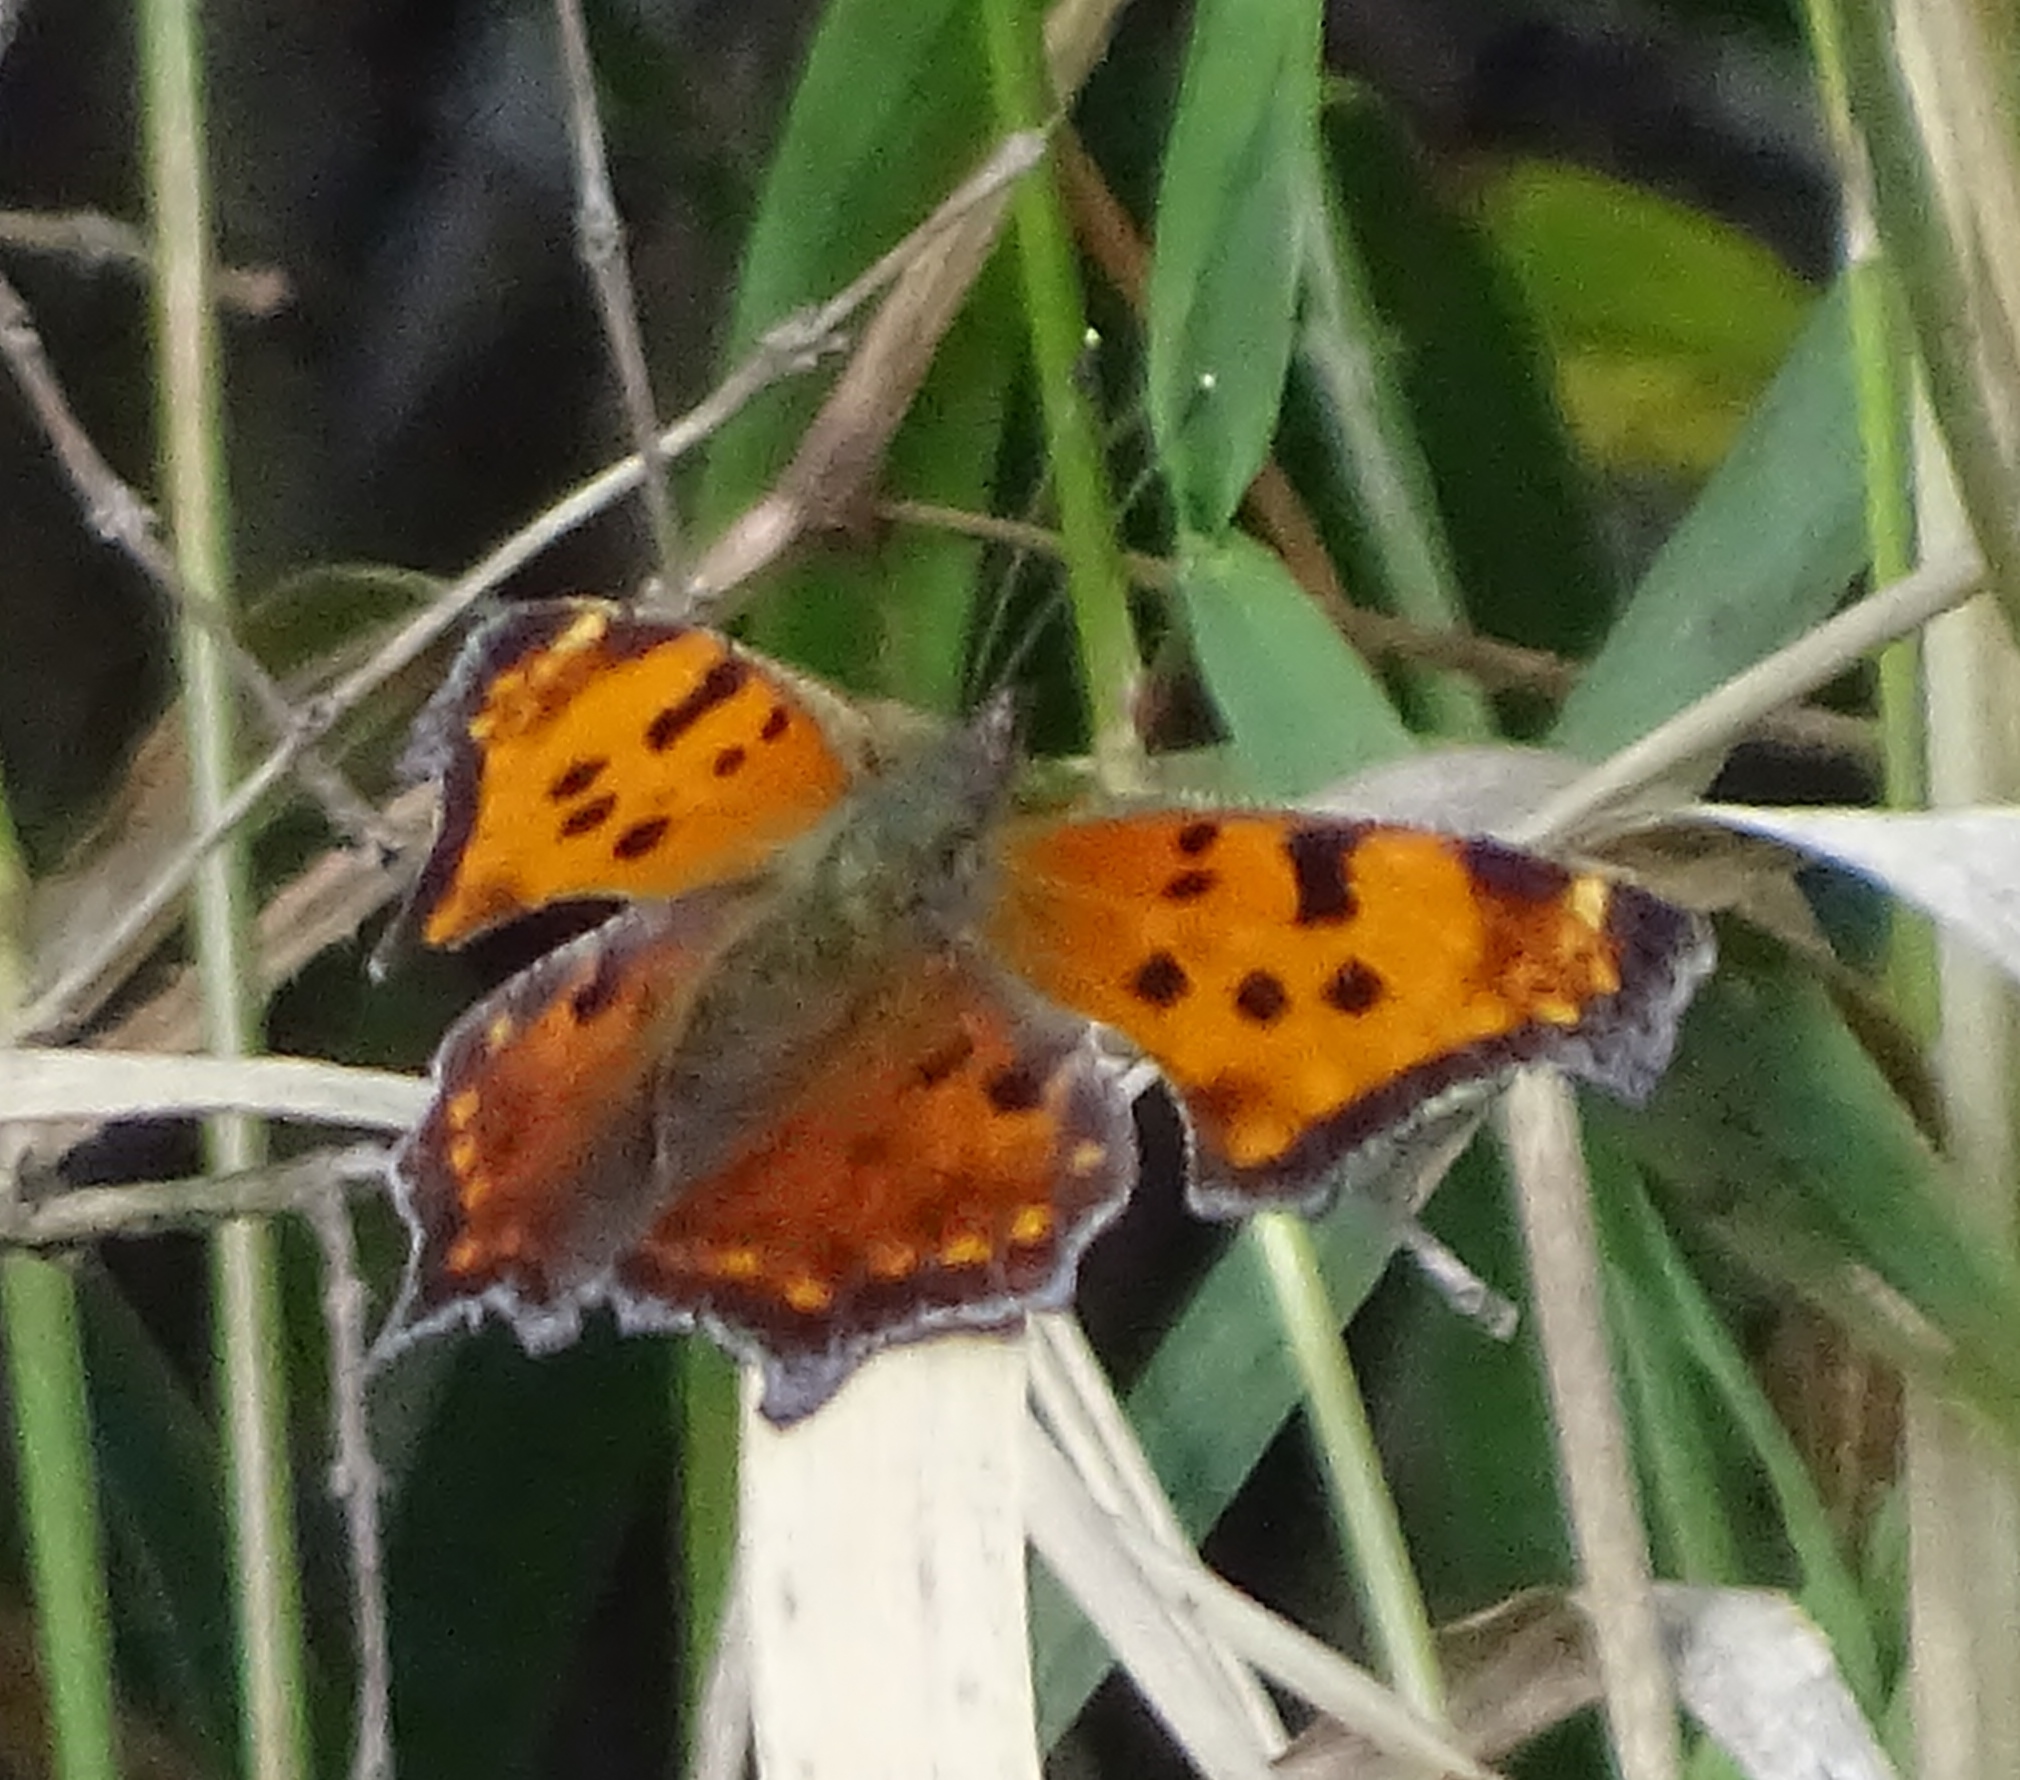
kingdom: Animalia
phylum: Arthropoda
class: Insecta
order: Lepidoptera
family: Nymphalidae
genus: Polygonia
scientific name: Polygonia comma
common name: Eastern comma
